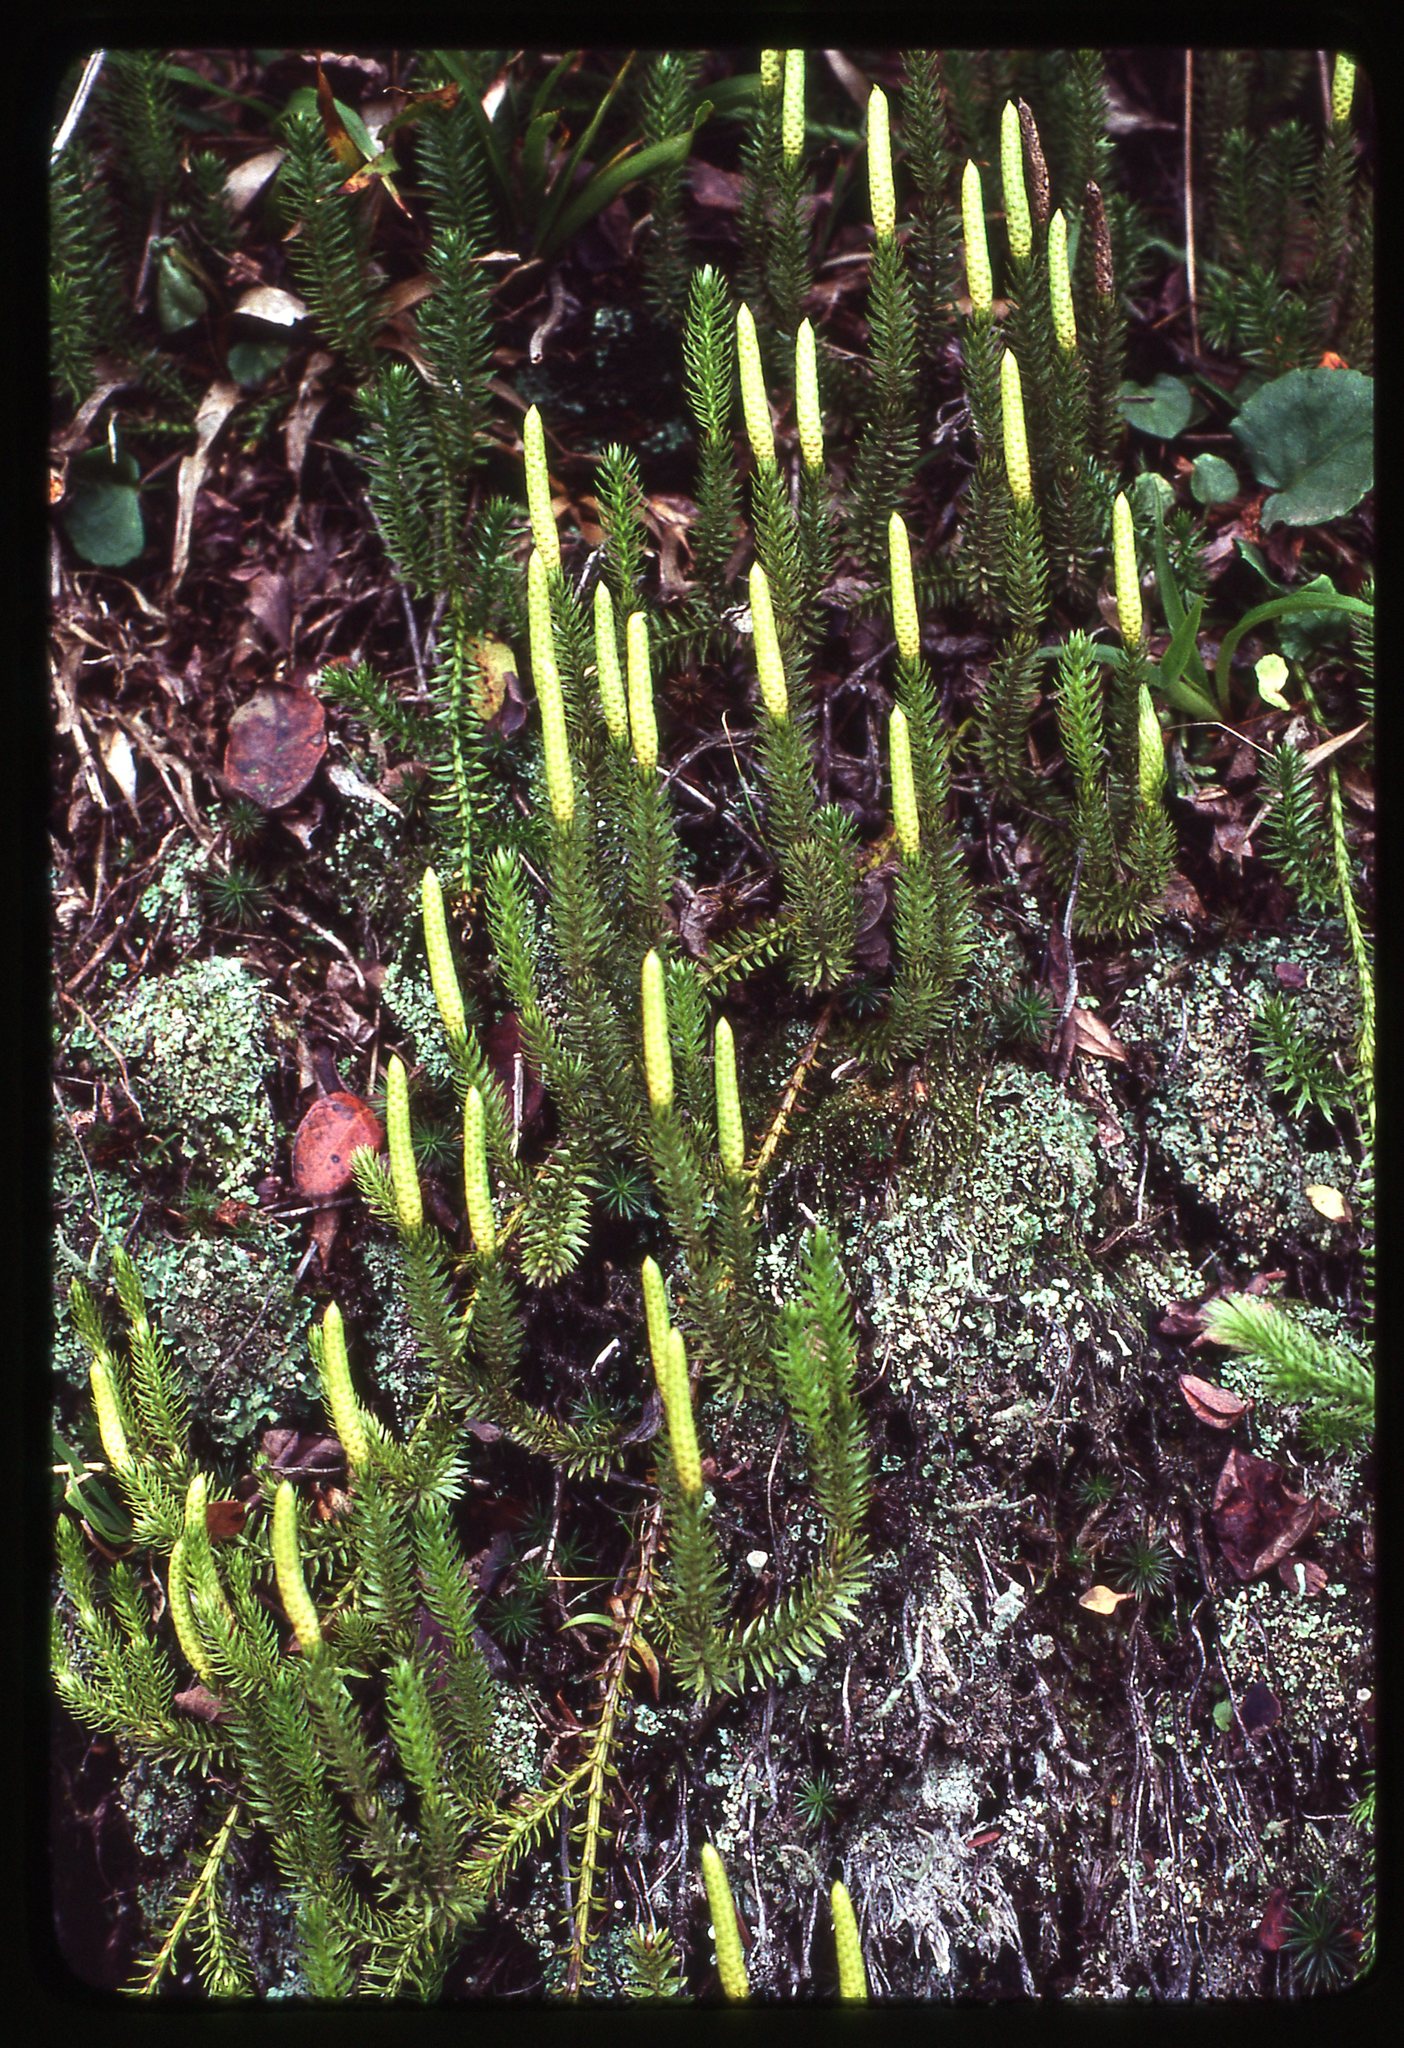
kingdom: Plantae
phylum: Tracheophyta
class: Lycopodiopsida
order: Lycopodiales
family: Lycopodiaceae
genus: Spinulum
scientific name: Spinulum annotinum
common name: Interrupted club-moss
